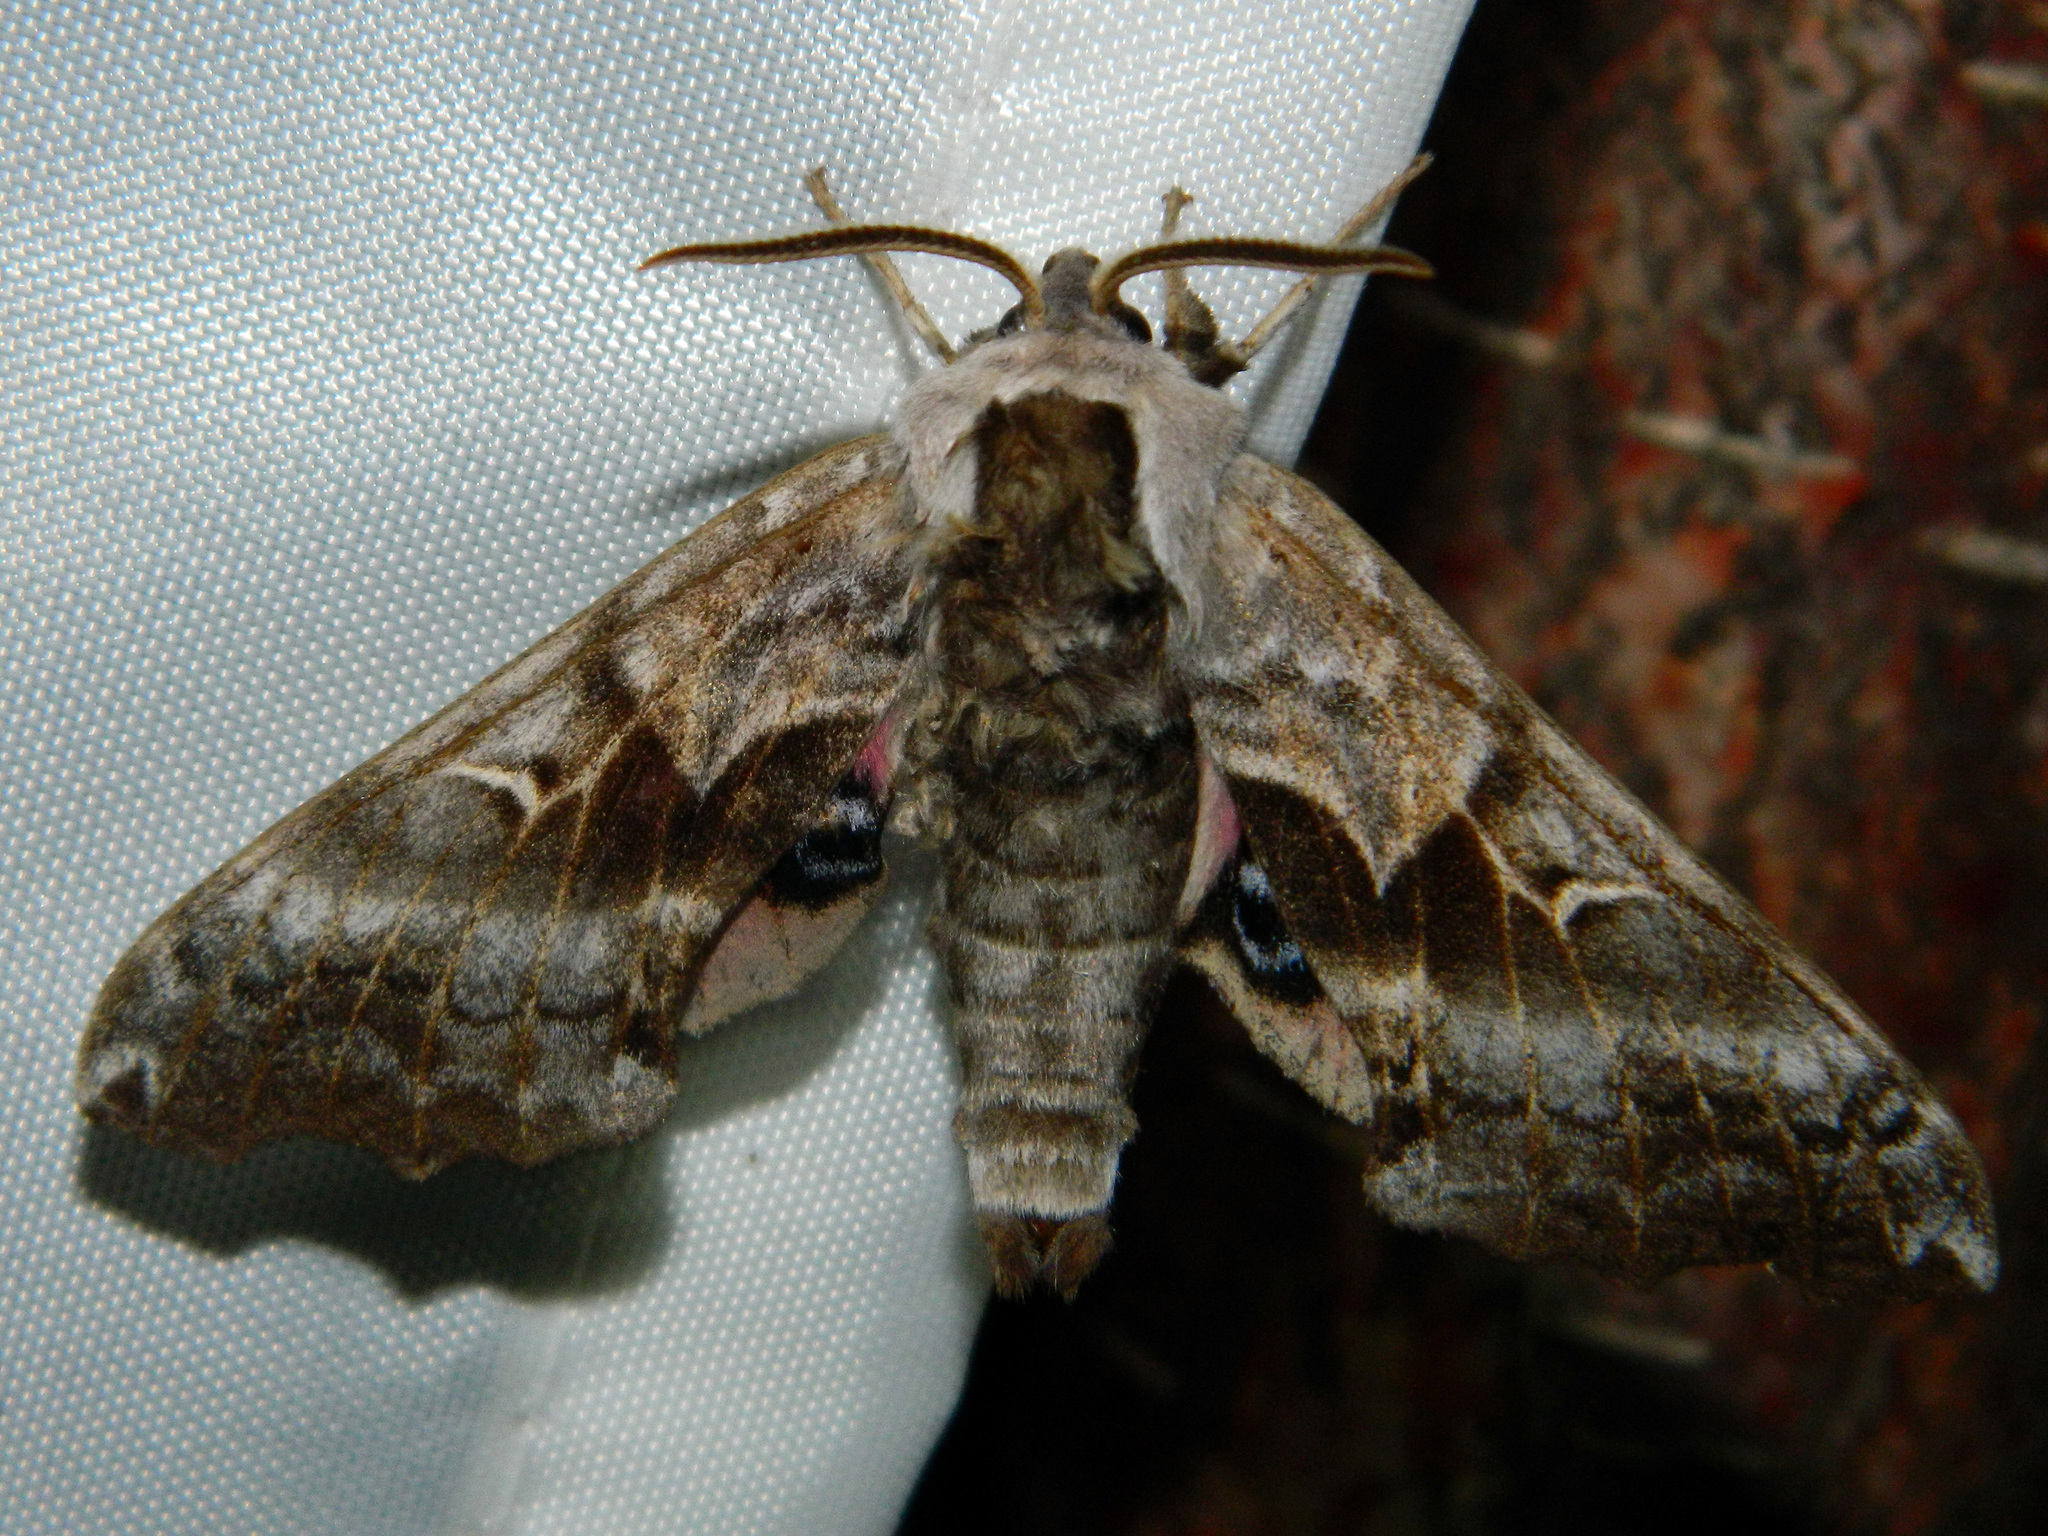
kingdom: Animalia
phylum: Arthropoda
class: Insecta
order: Lepidoptera
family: Sphingidae
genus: Smerinthus
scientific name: Smerinthus cerisyi
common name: Cerisy's sphinx moth
